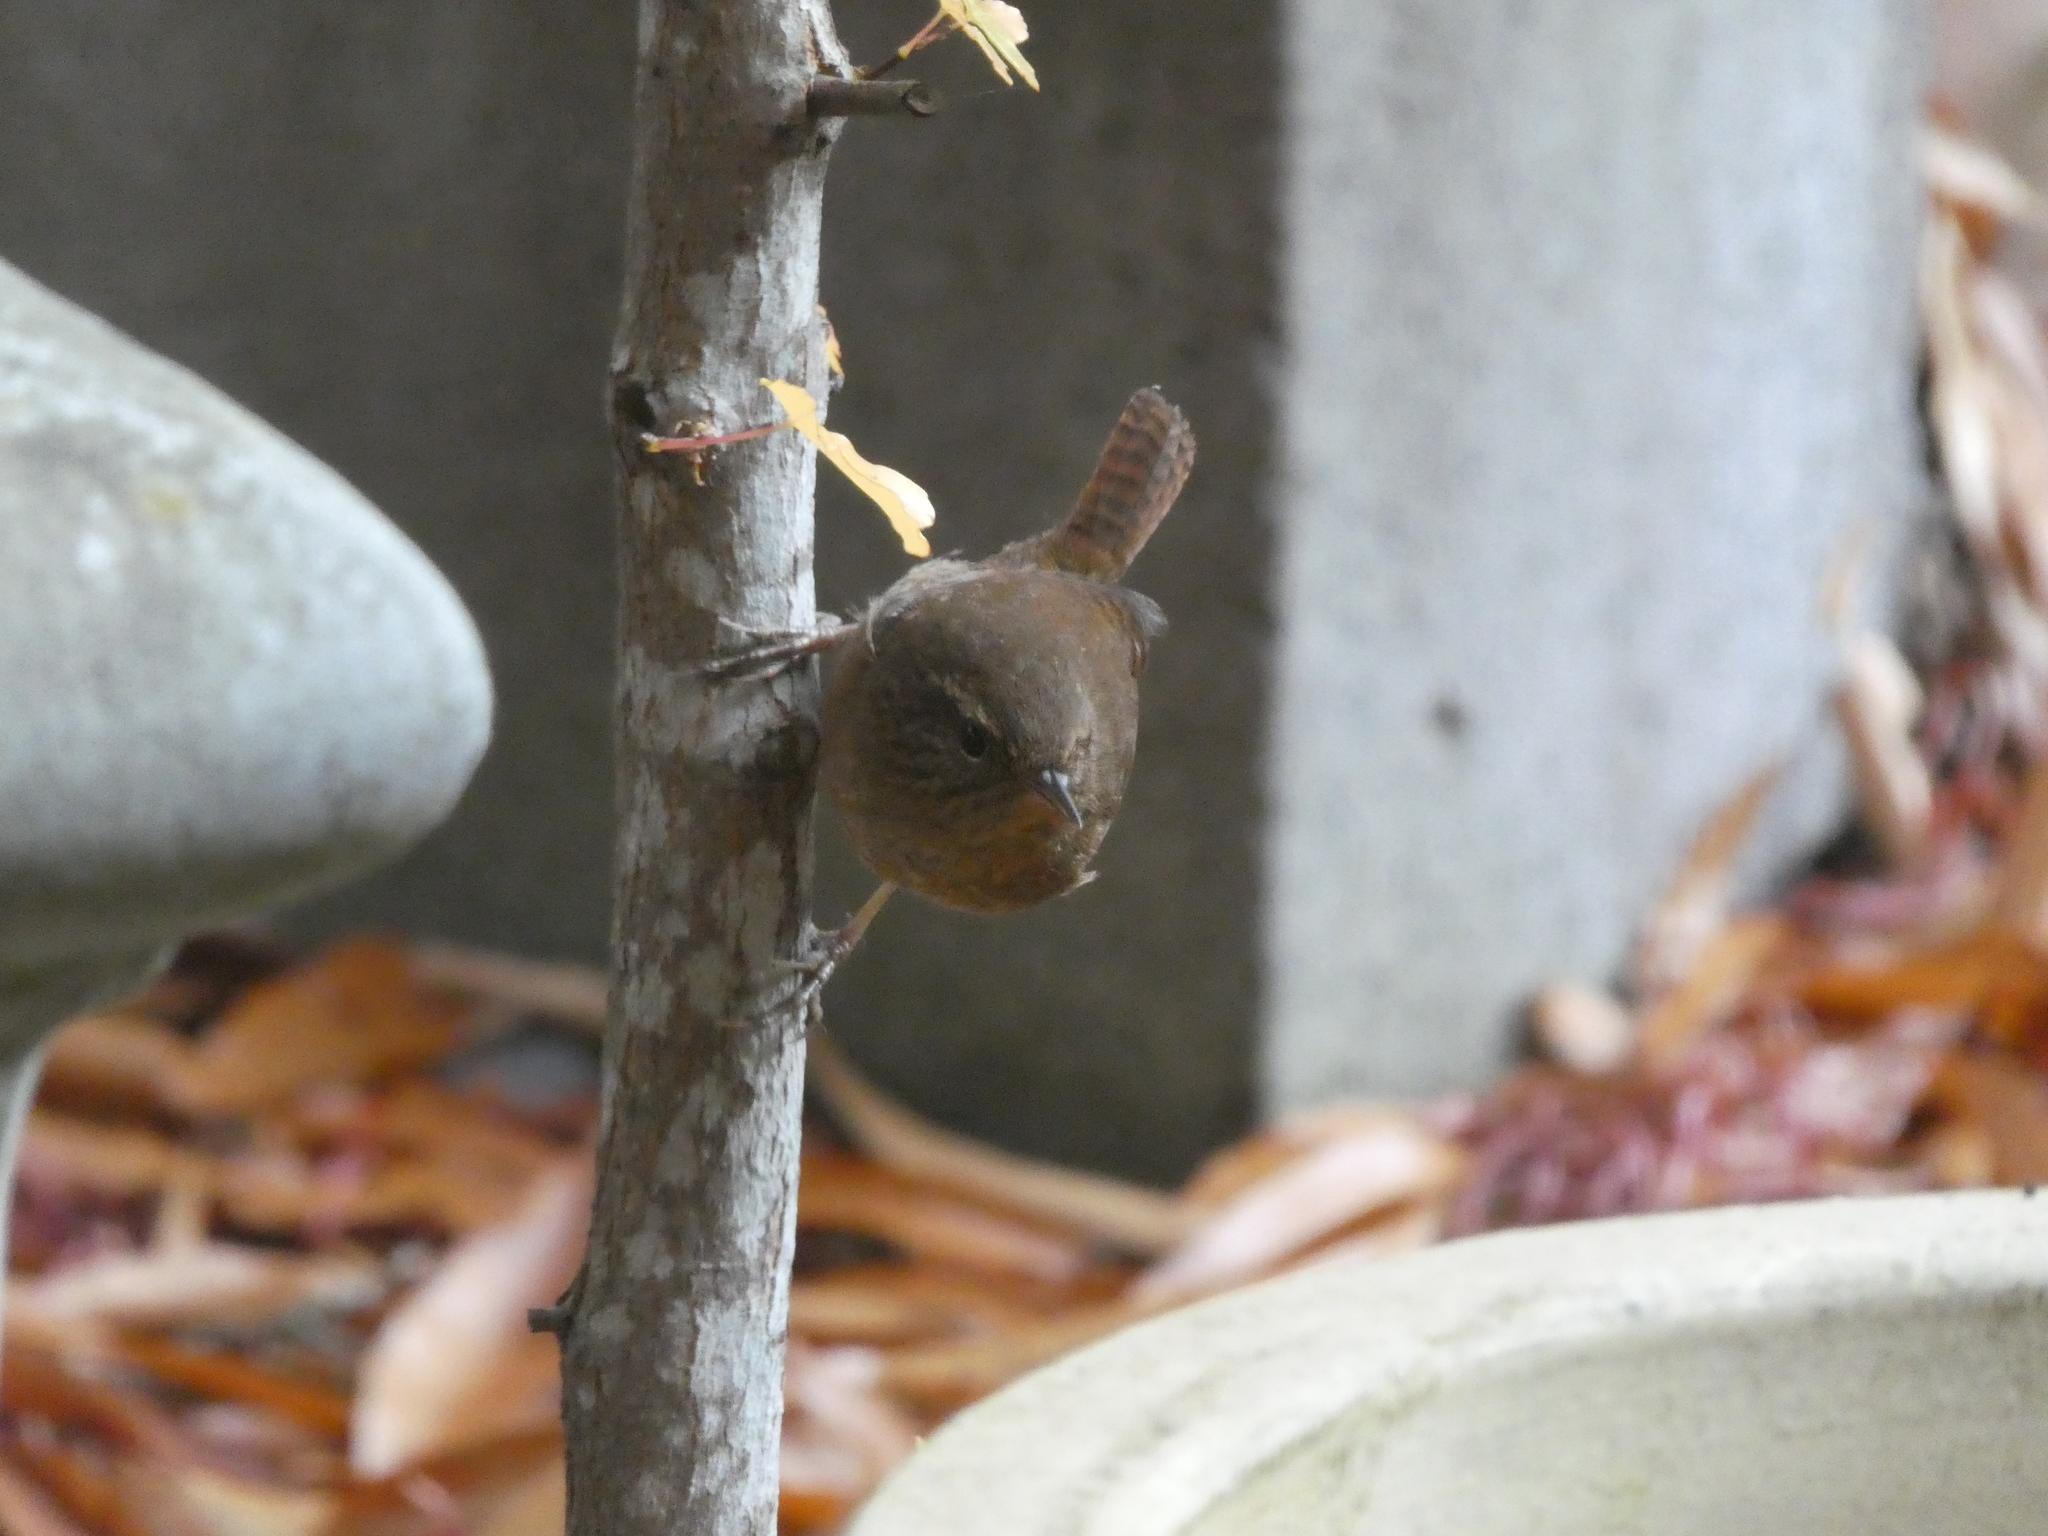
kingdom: Animalia
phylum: Chordata
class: Aves
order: Passeriformes
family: Troglodytidae
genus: Troglodytes
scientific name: Troglodytes pacificus
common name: Pacific wren
